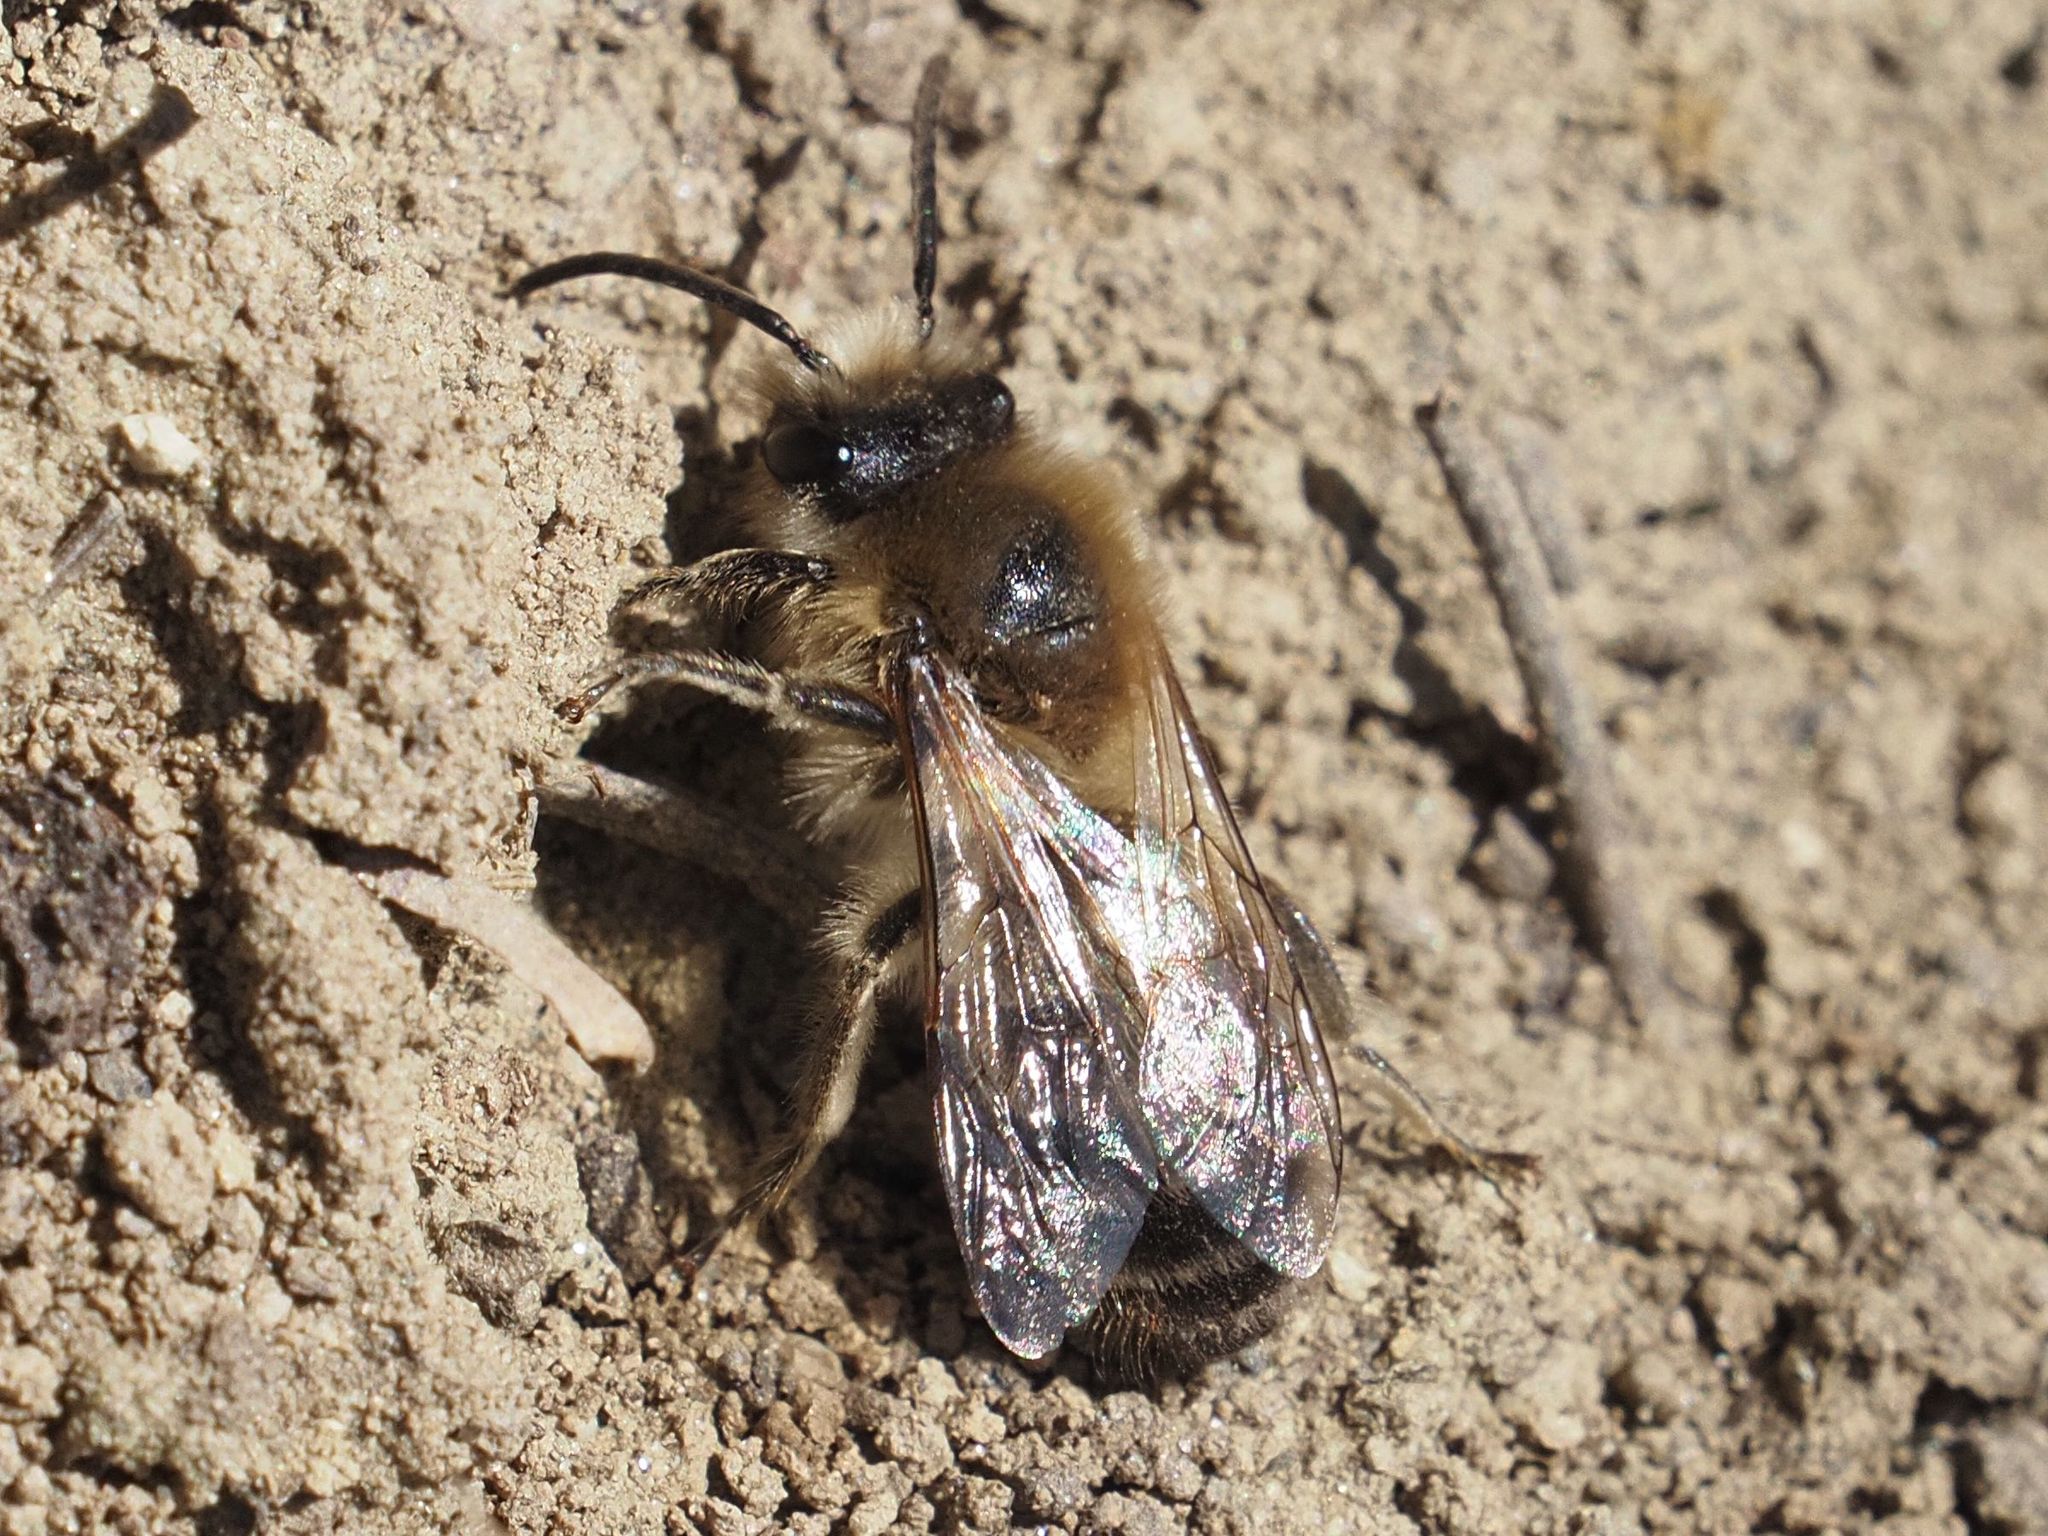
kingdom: Animalia
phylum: Arthropoda
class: Insecta
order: Hymenoptera
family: Colletidae
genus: Colletes
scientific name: Colletes cunicularius
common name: Early colletes
